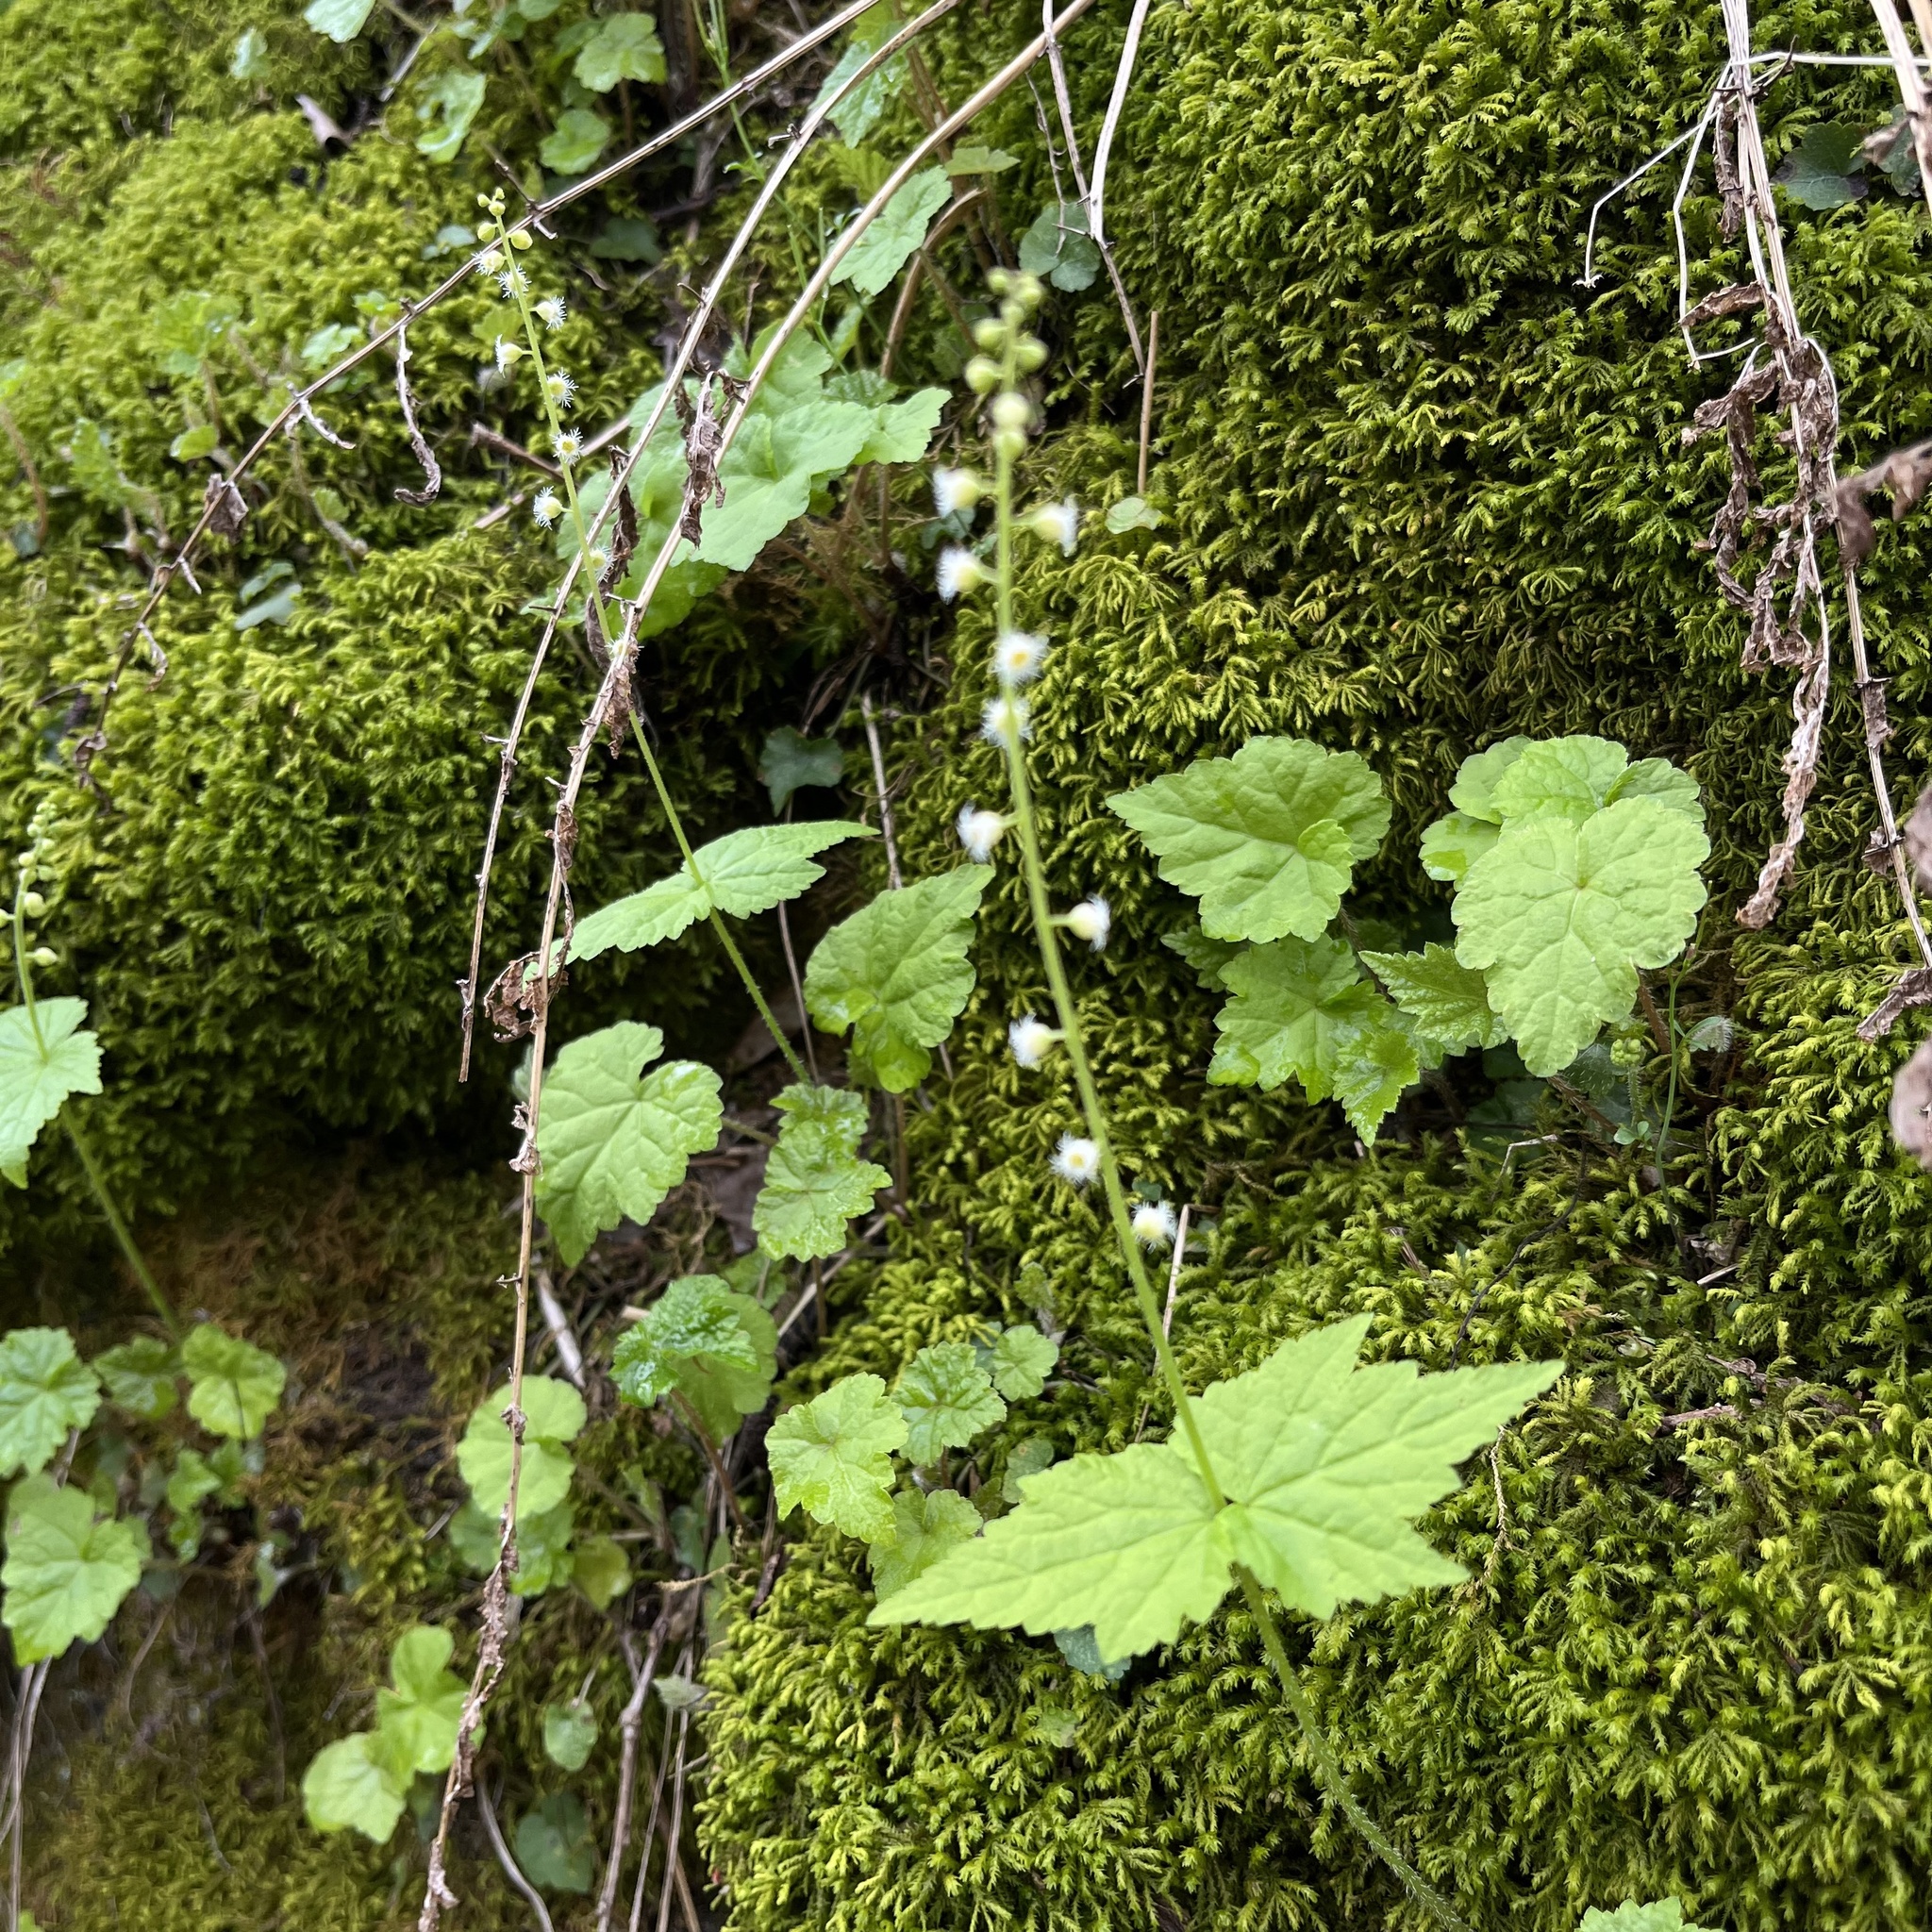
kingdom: Plantae
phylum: Tracheophyta
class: Magnoliopsida
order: Saxifragales
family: Saxifragaceae
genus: Mitella
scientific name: Mitella diphylla
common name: Coolwort
